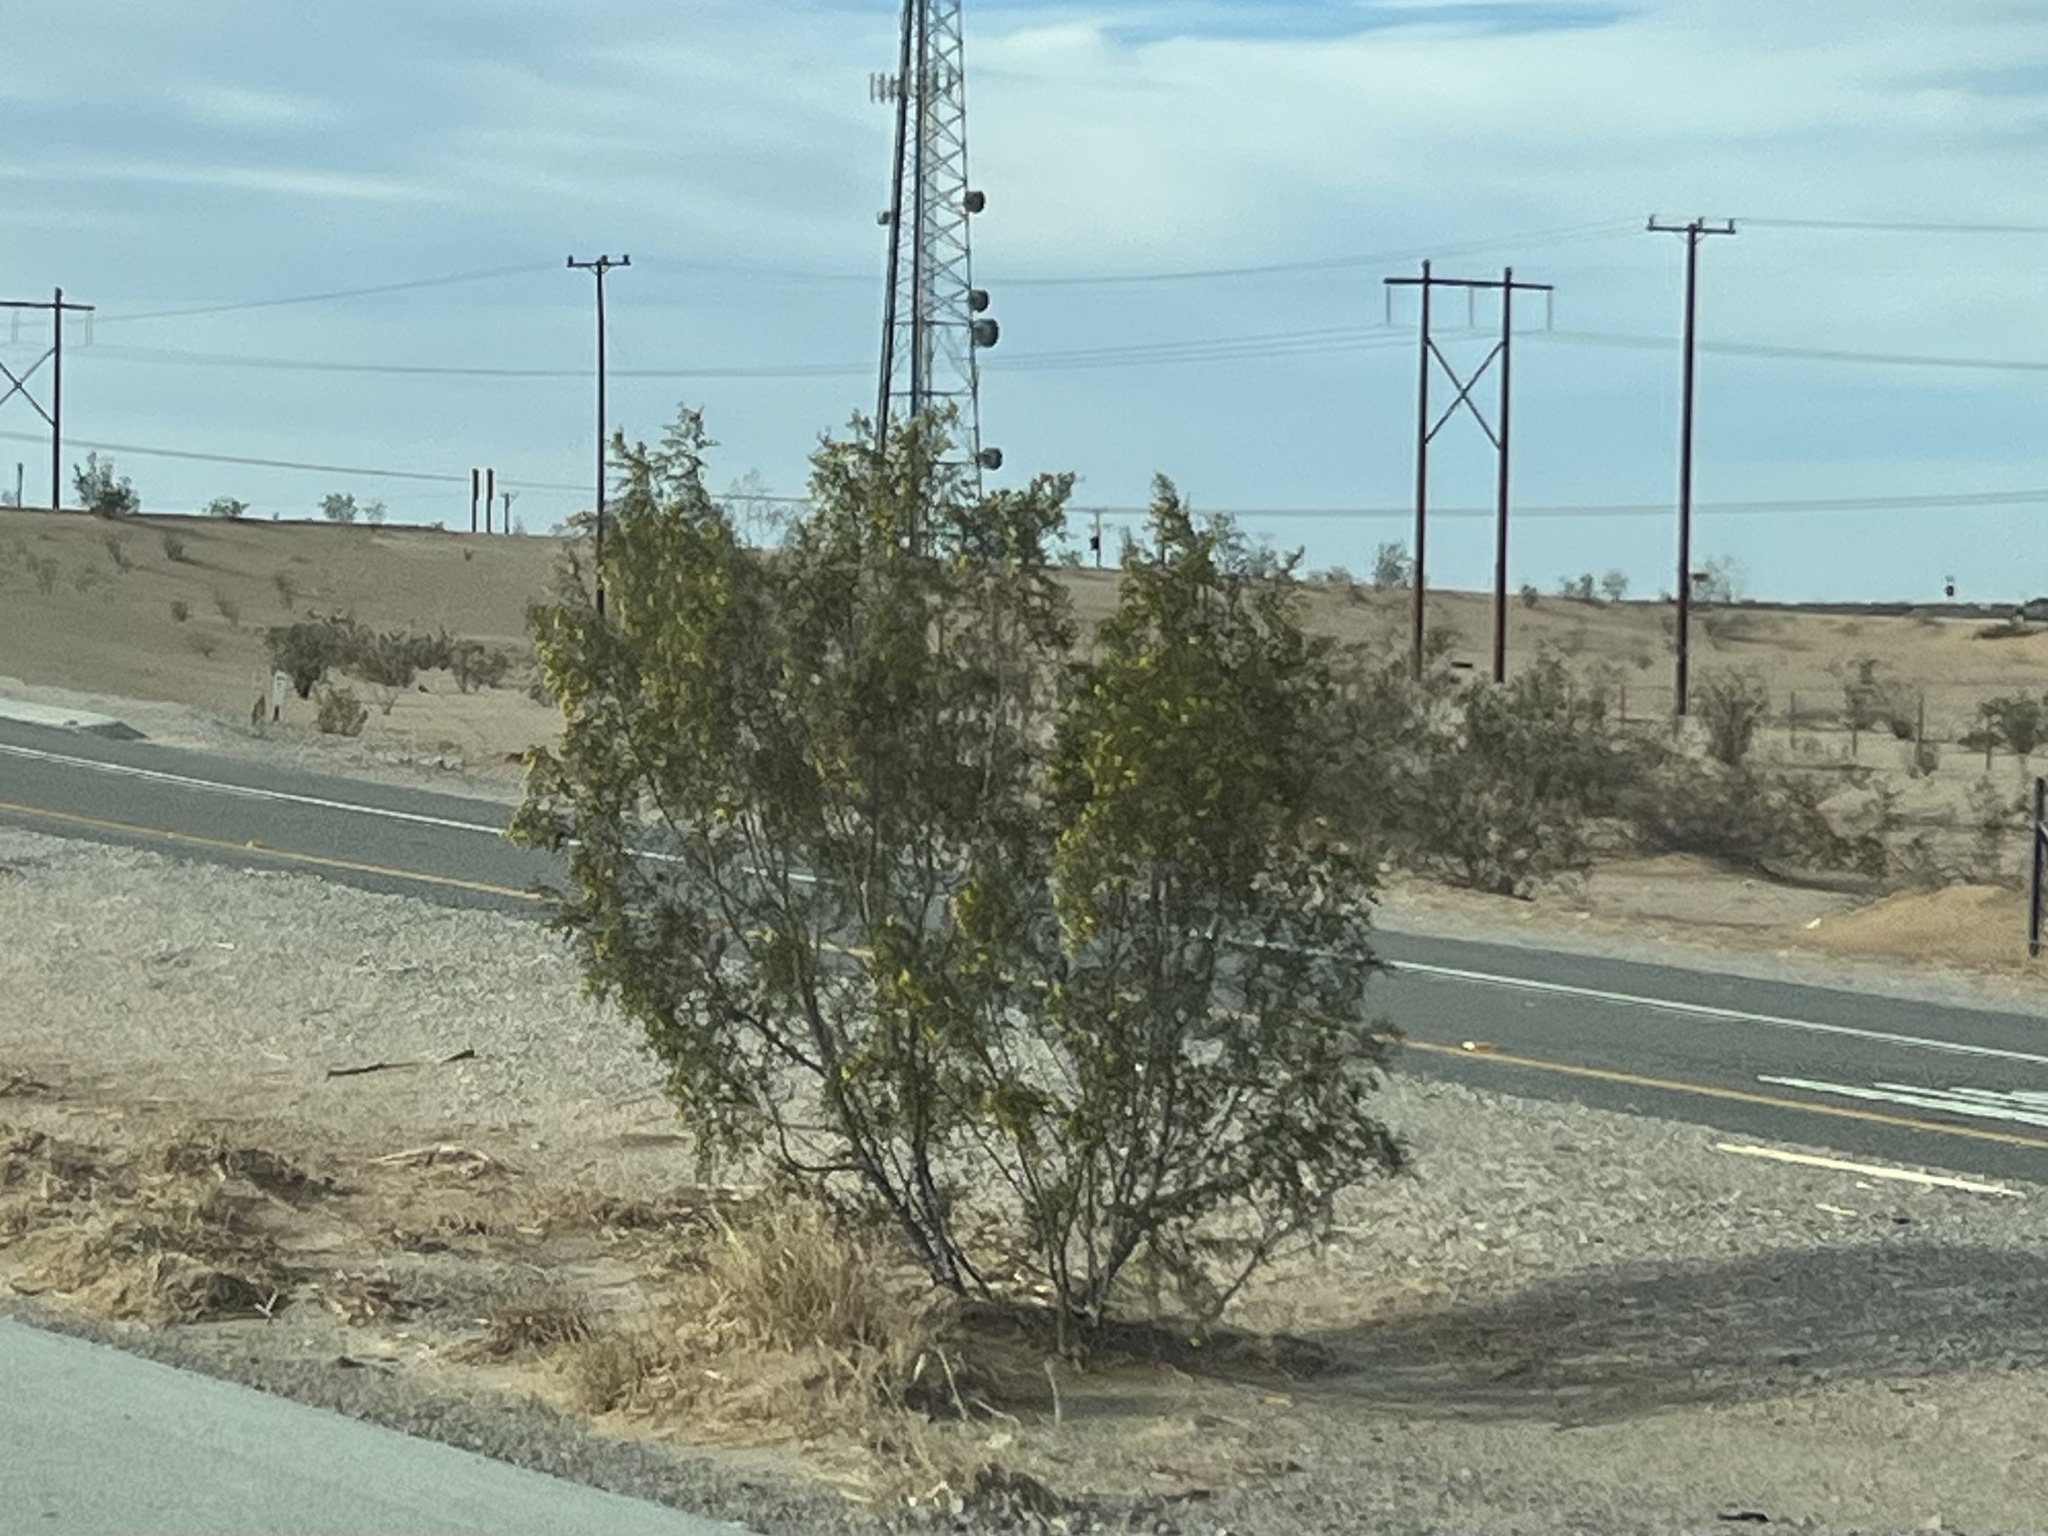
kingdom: Plantae
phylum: Tracheophyta
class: Magnoliopsida
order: Zygophyllales
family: Zygophyllaceae
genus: Larrea
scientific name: Larrea tridentata
